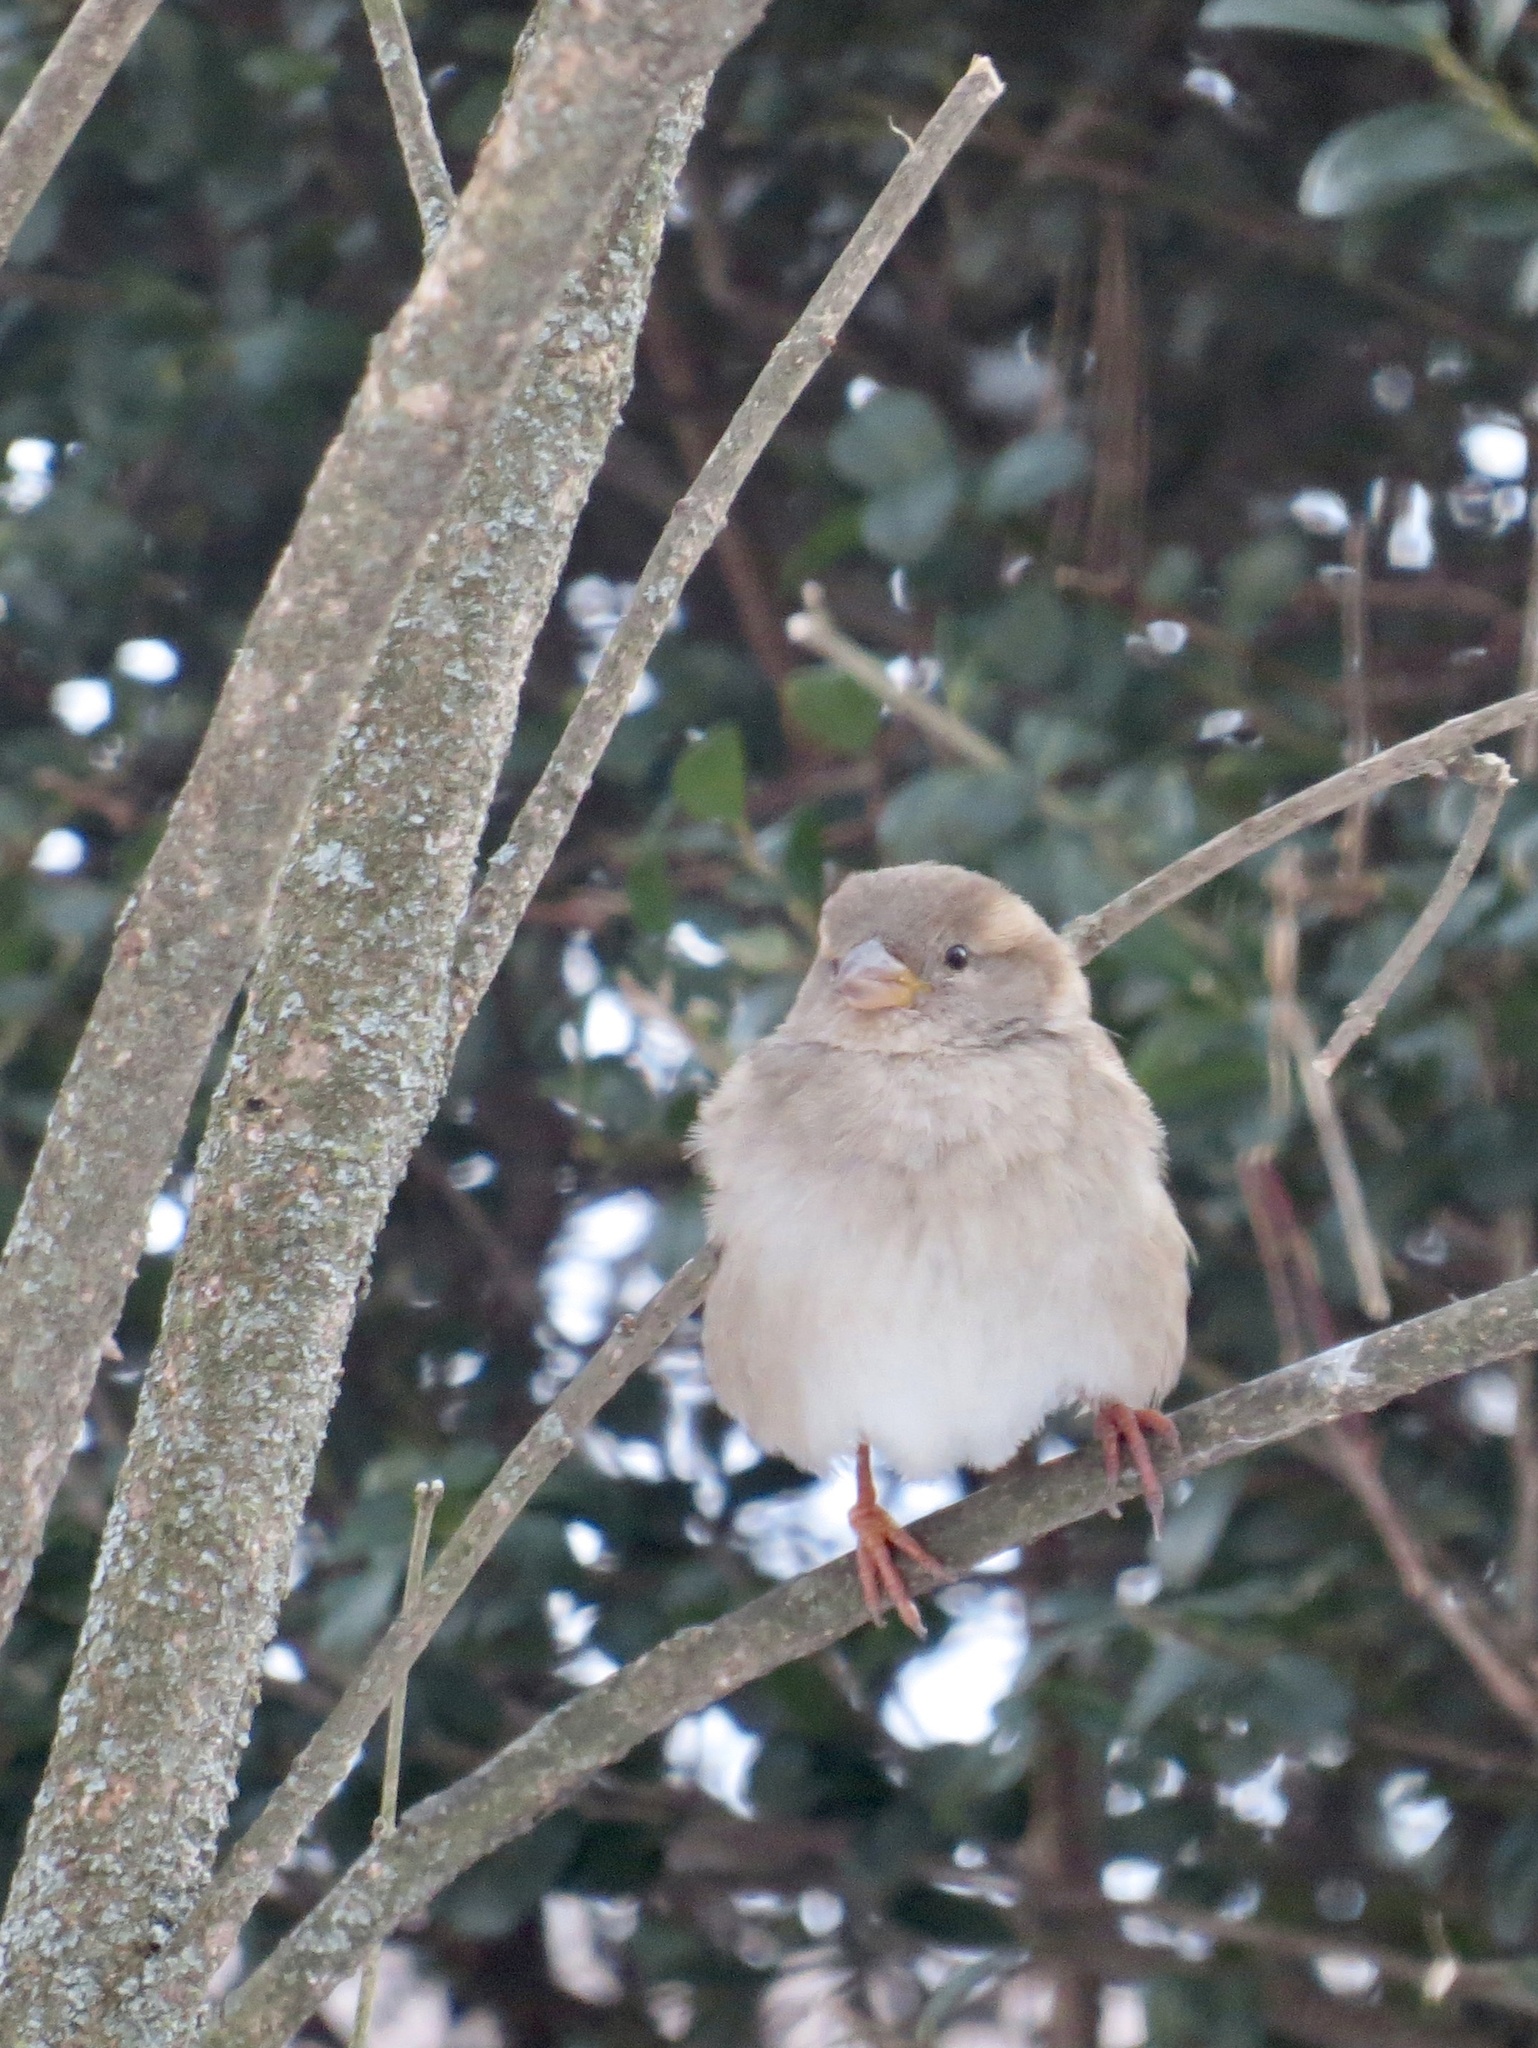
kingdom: Animalia
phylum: Chordata
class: Aves
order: Passeriformes
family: Passeridae
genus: Passer
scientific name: Passer domesticus
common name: House sparrow
